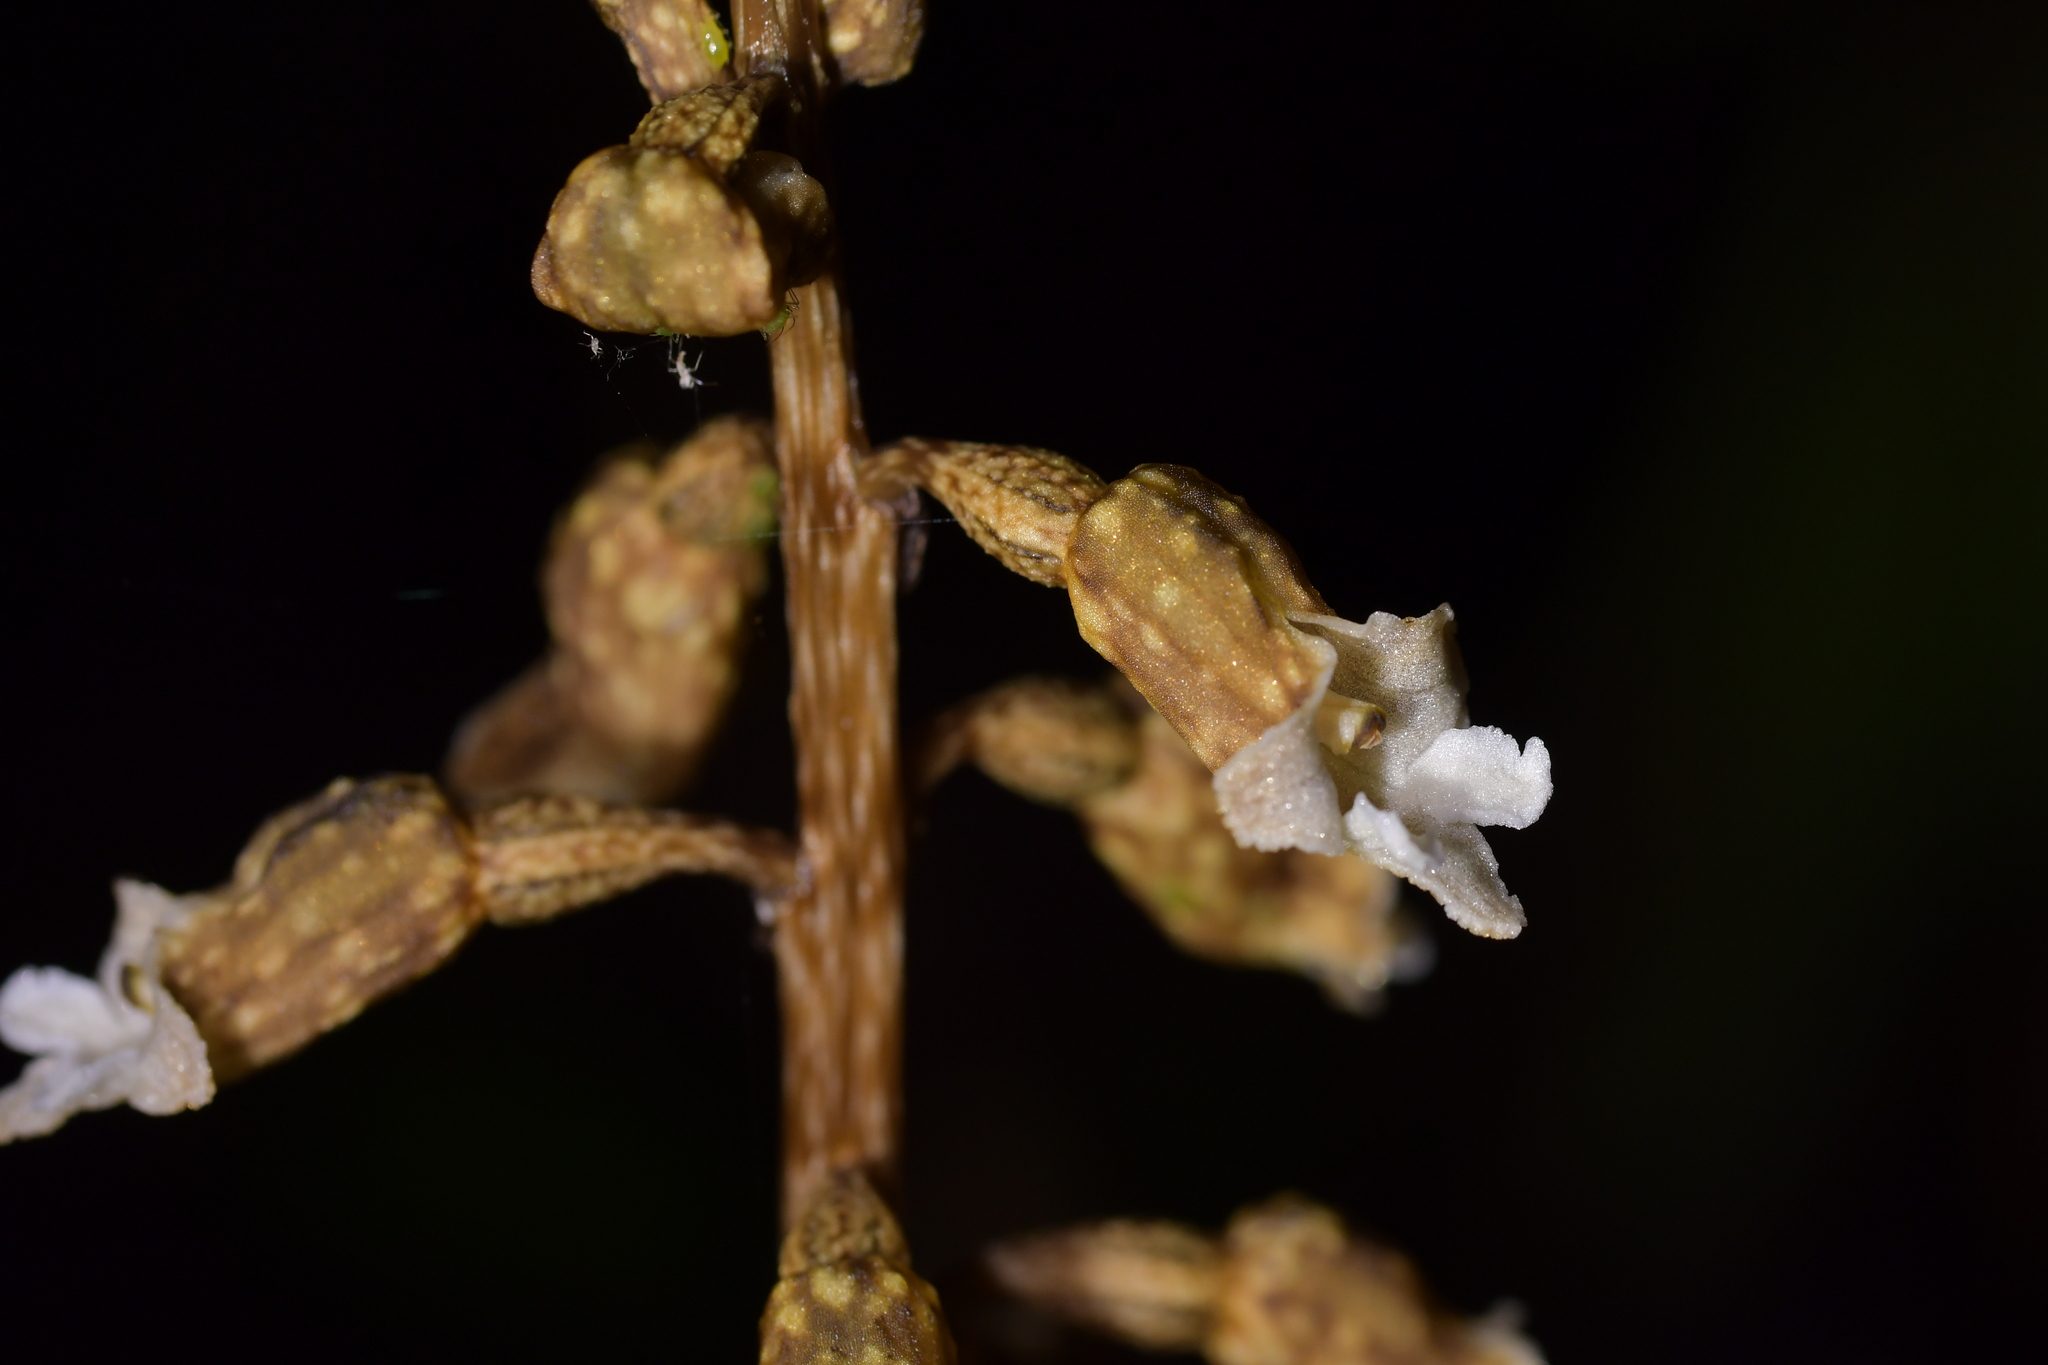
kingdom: Plantae
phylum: Tracheophyta
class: Liliopsida
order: Asparagales
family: Orchidaceae
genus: Gastrodia
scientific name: Gastrodia cunninghamii
